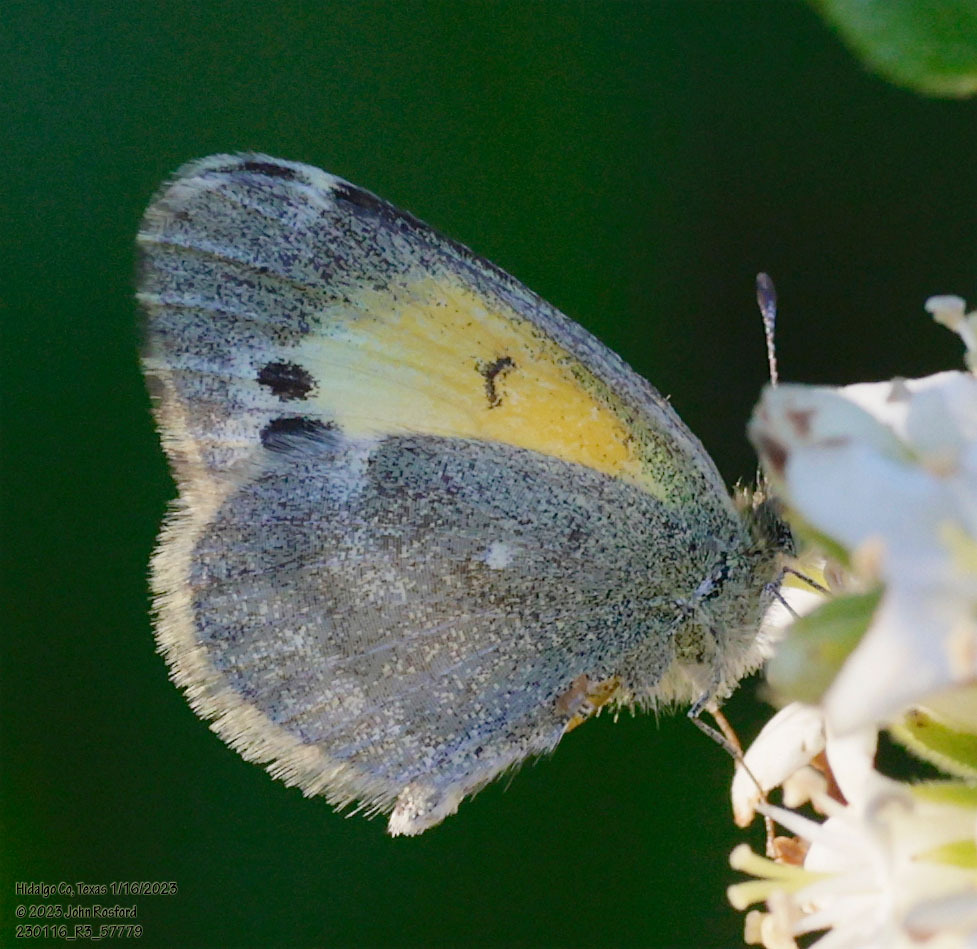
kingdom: Animalia
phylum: Arthropoda
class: Insecta
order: Lepidoptera
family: Pieridae
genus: Nathalis
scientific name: Nathalis iole
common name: Dainty sulphur
